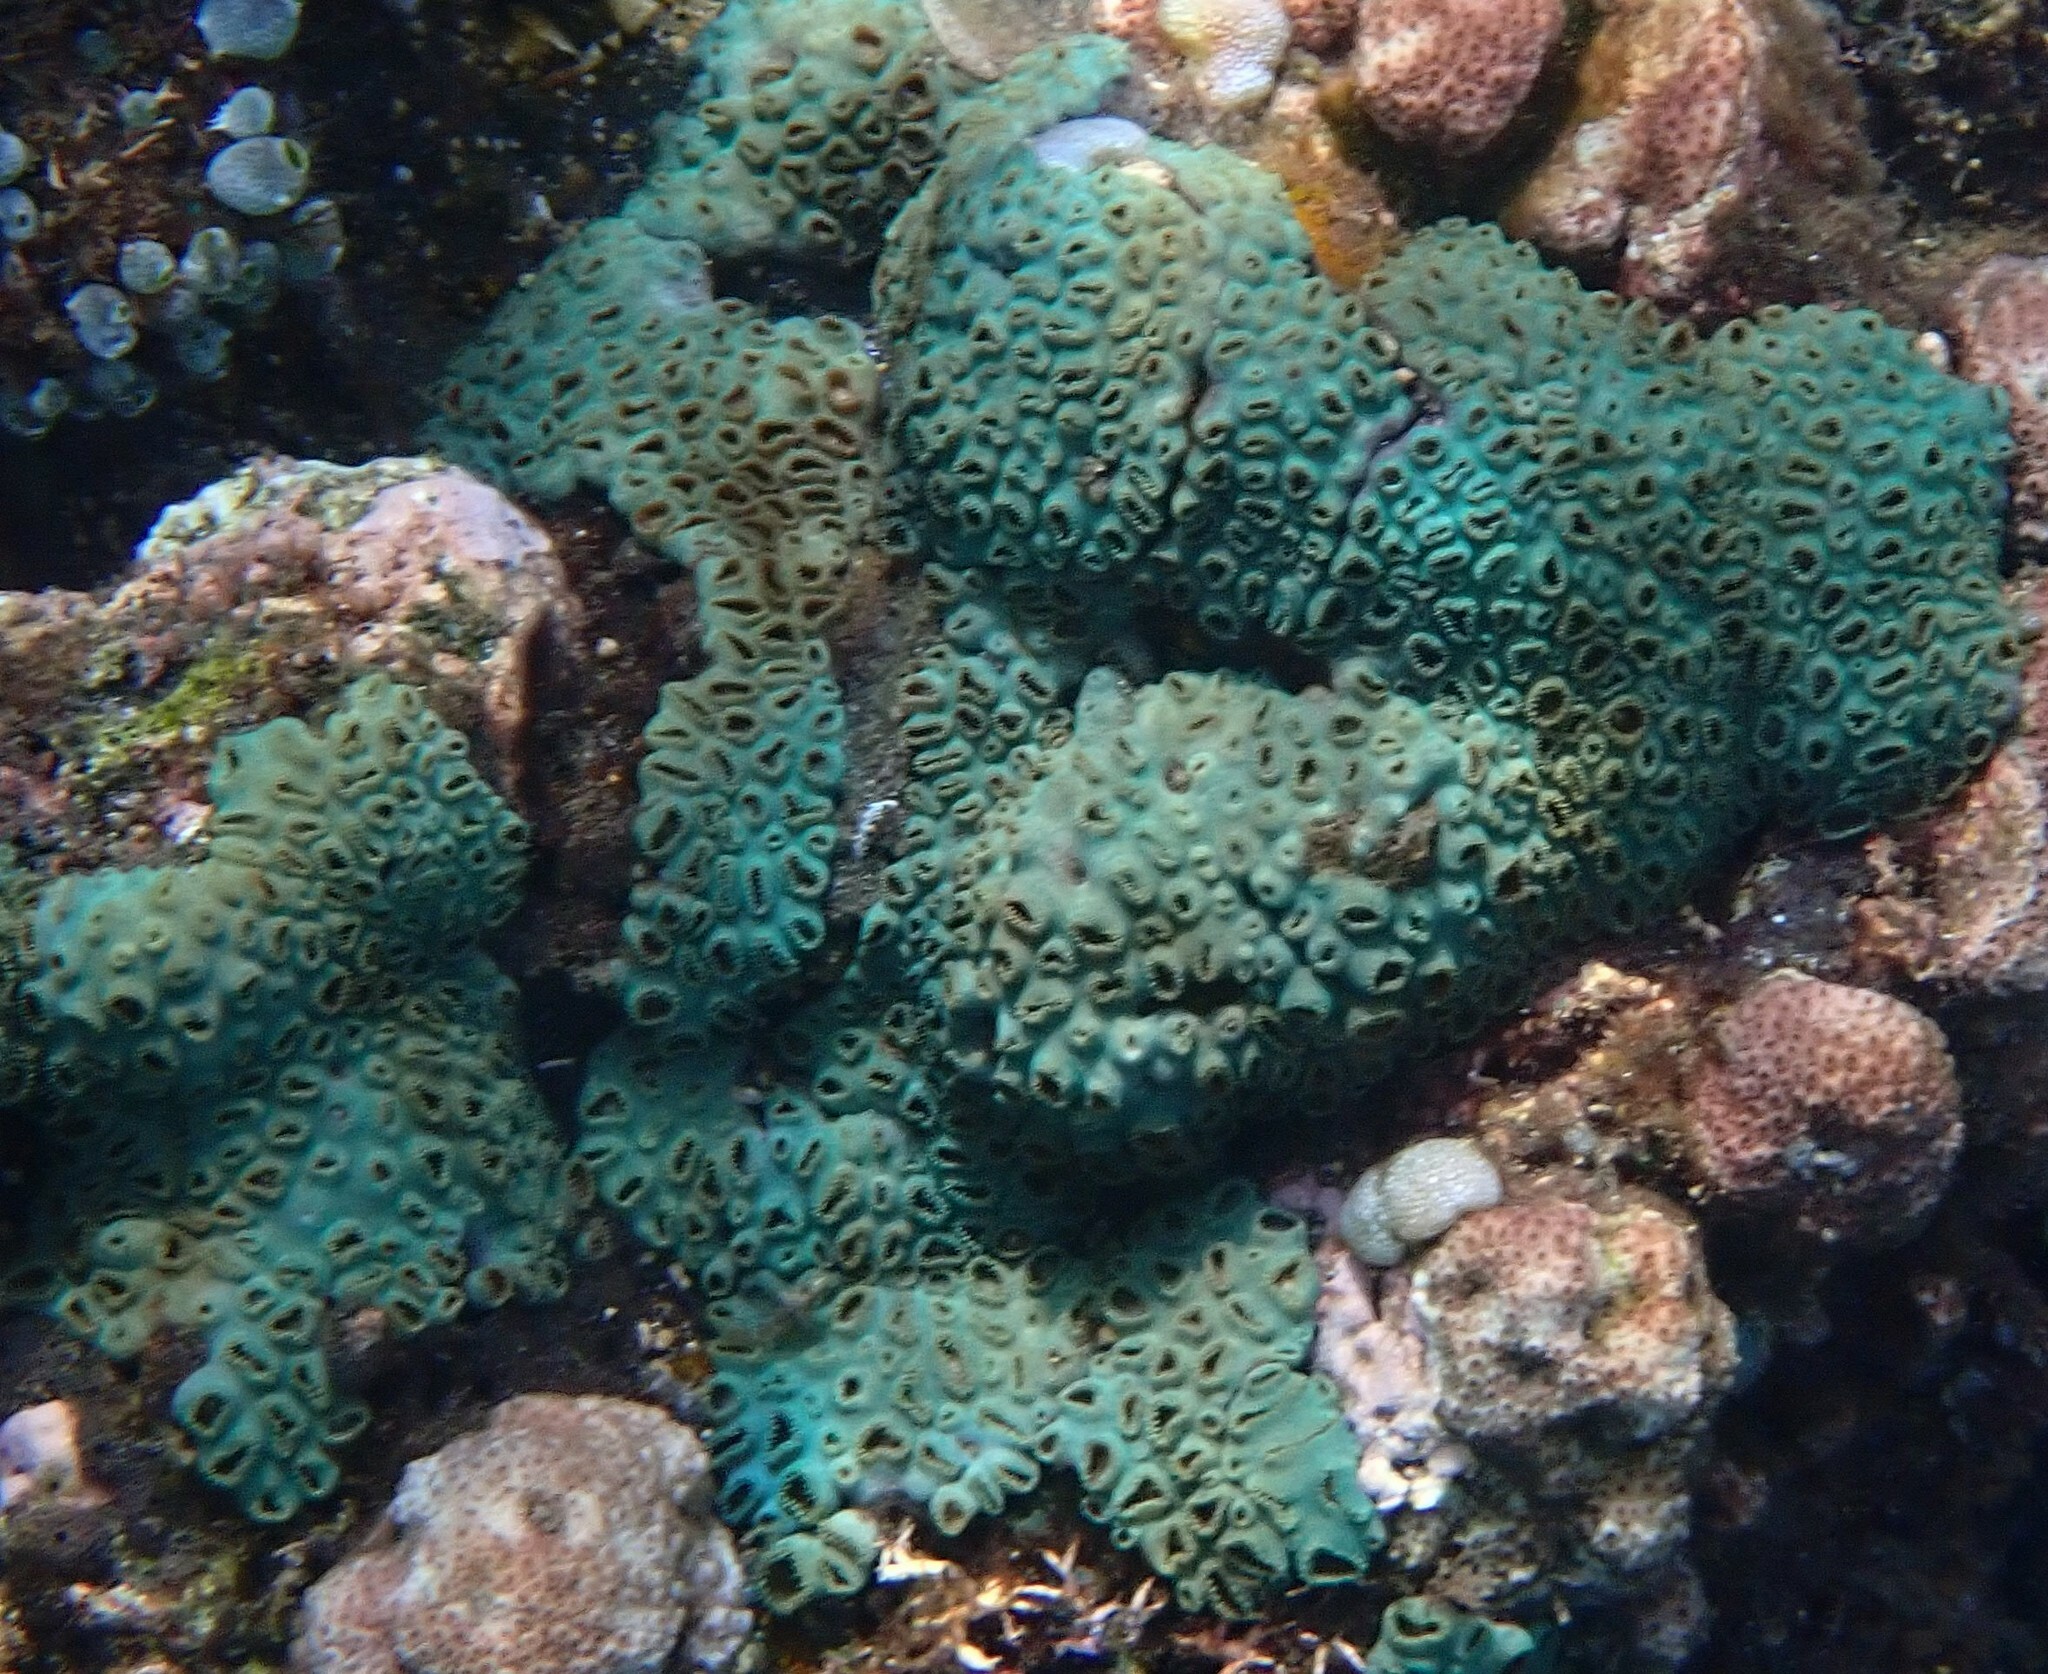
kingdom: Animalia
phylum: Cnidaria
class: Anthozoa
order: Zoantharia
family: Sphenopidae
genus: Palythoa
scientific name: Palythoa tuberculosa
